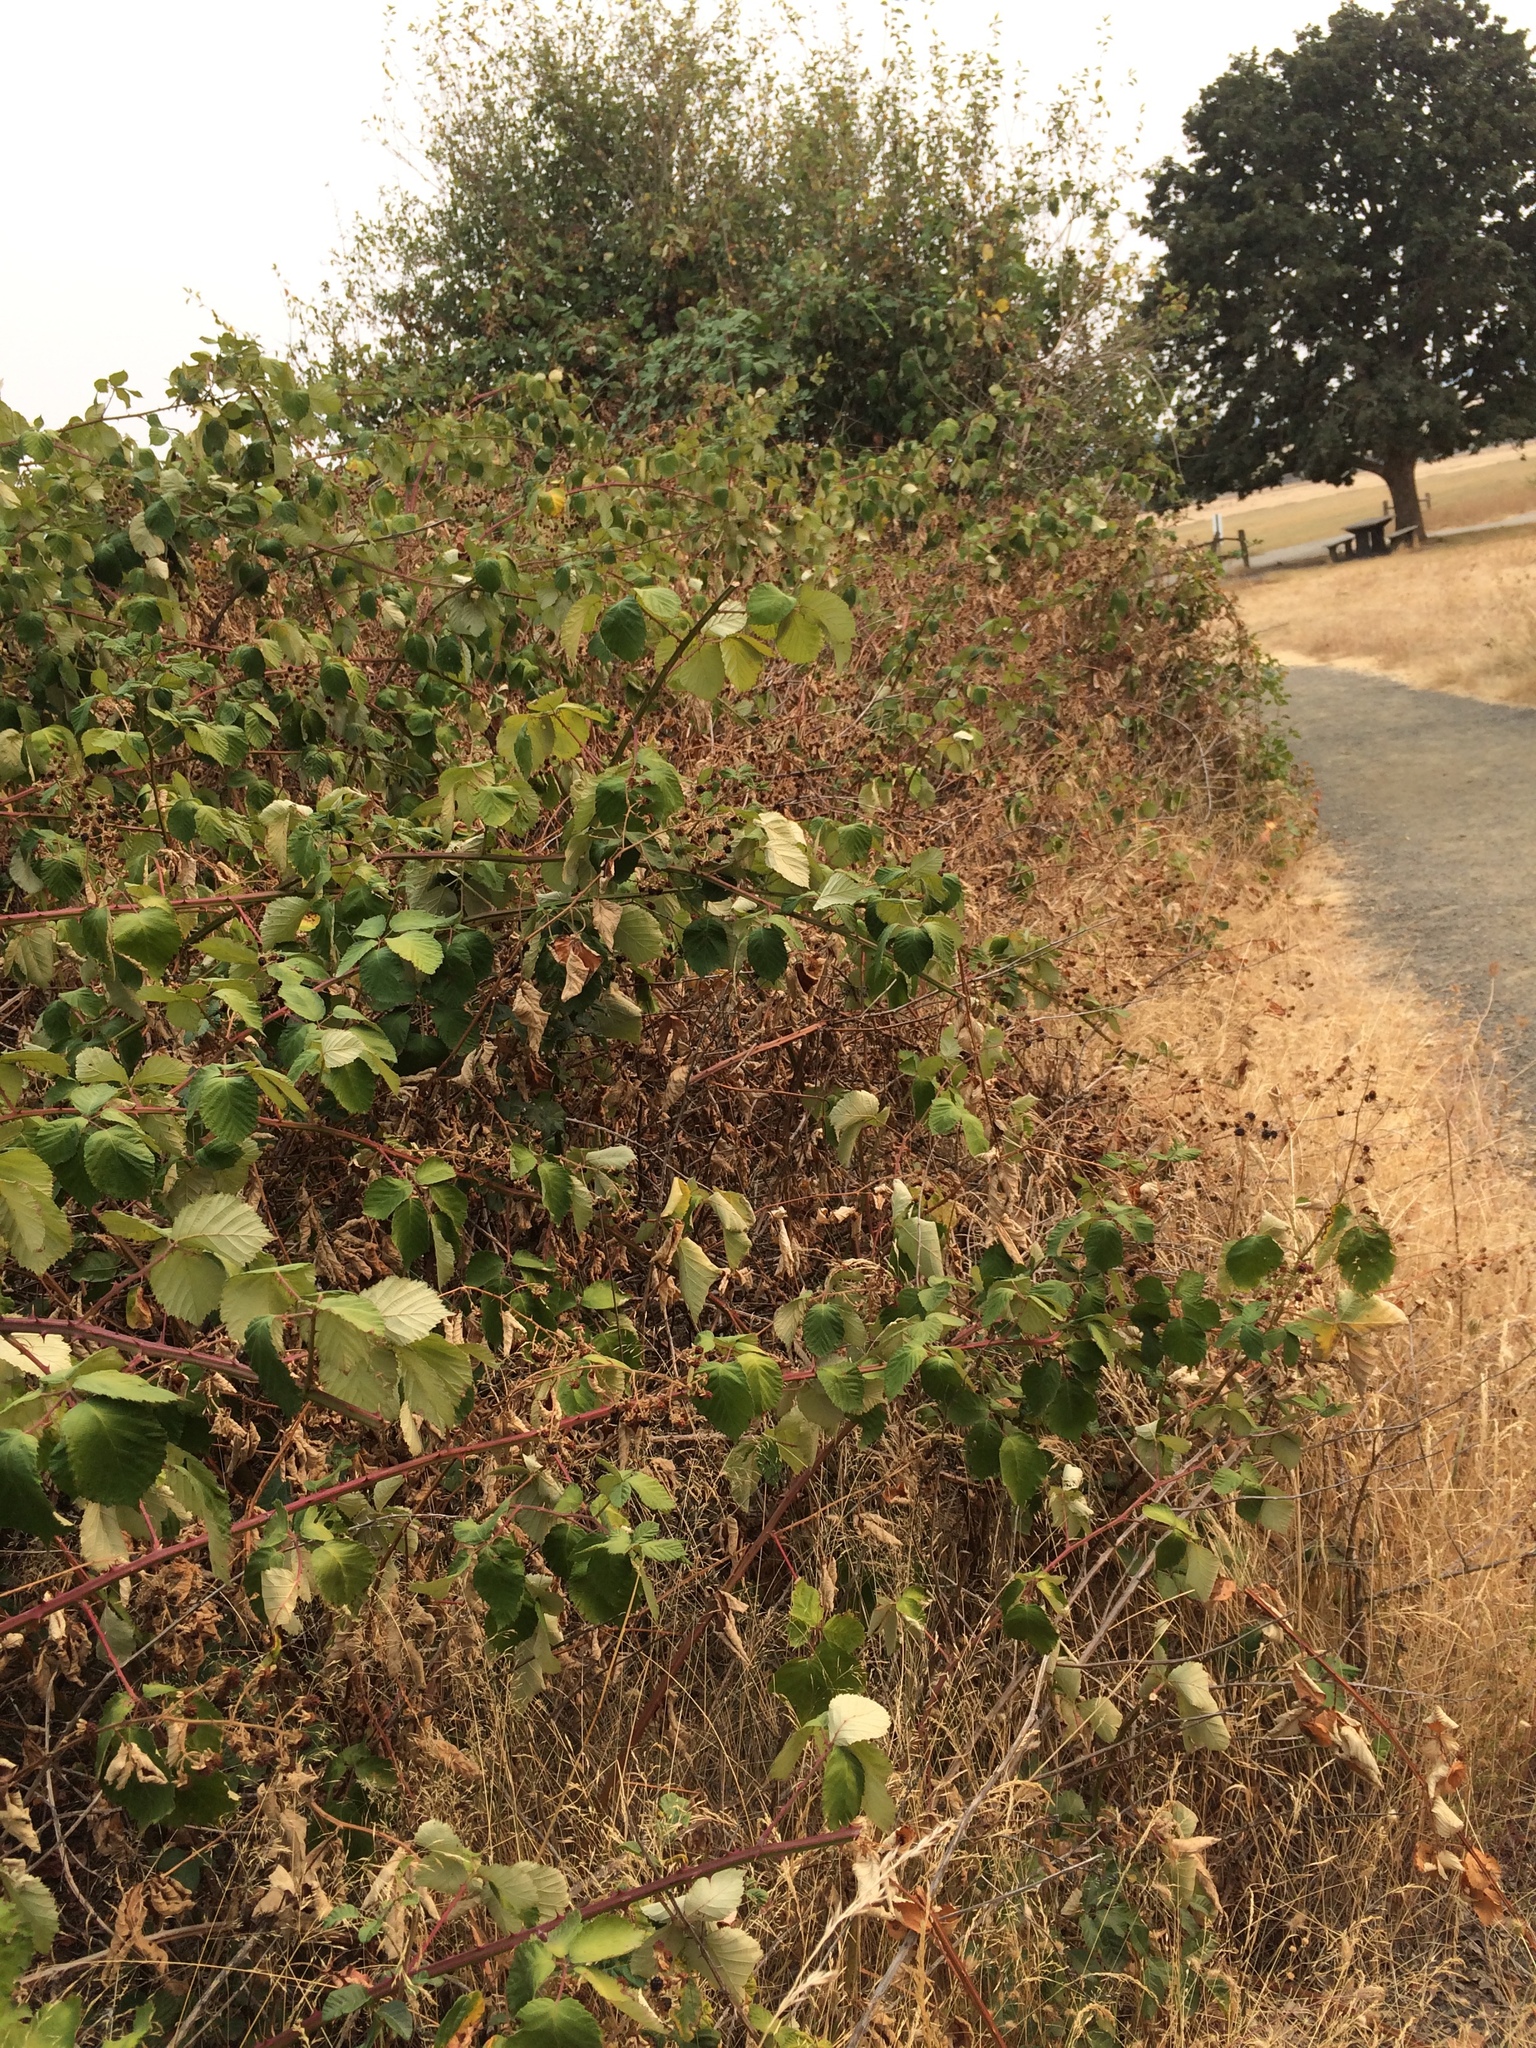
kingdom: Plantae
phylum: Tracheophyta
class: Magnoliopsida
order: Rosales
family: Rosaceae
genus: Rubus
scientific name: Rubus bifrons
